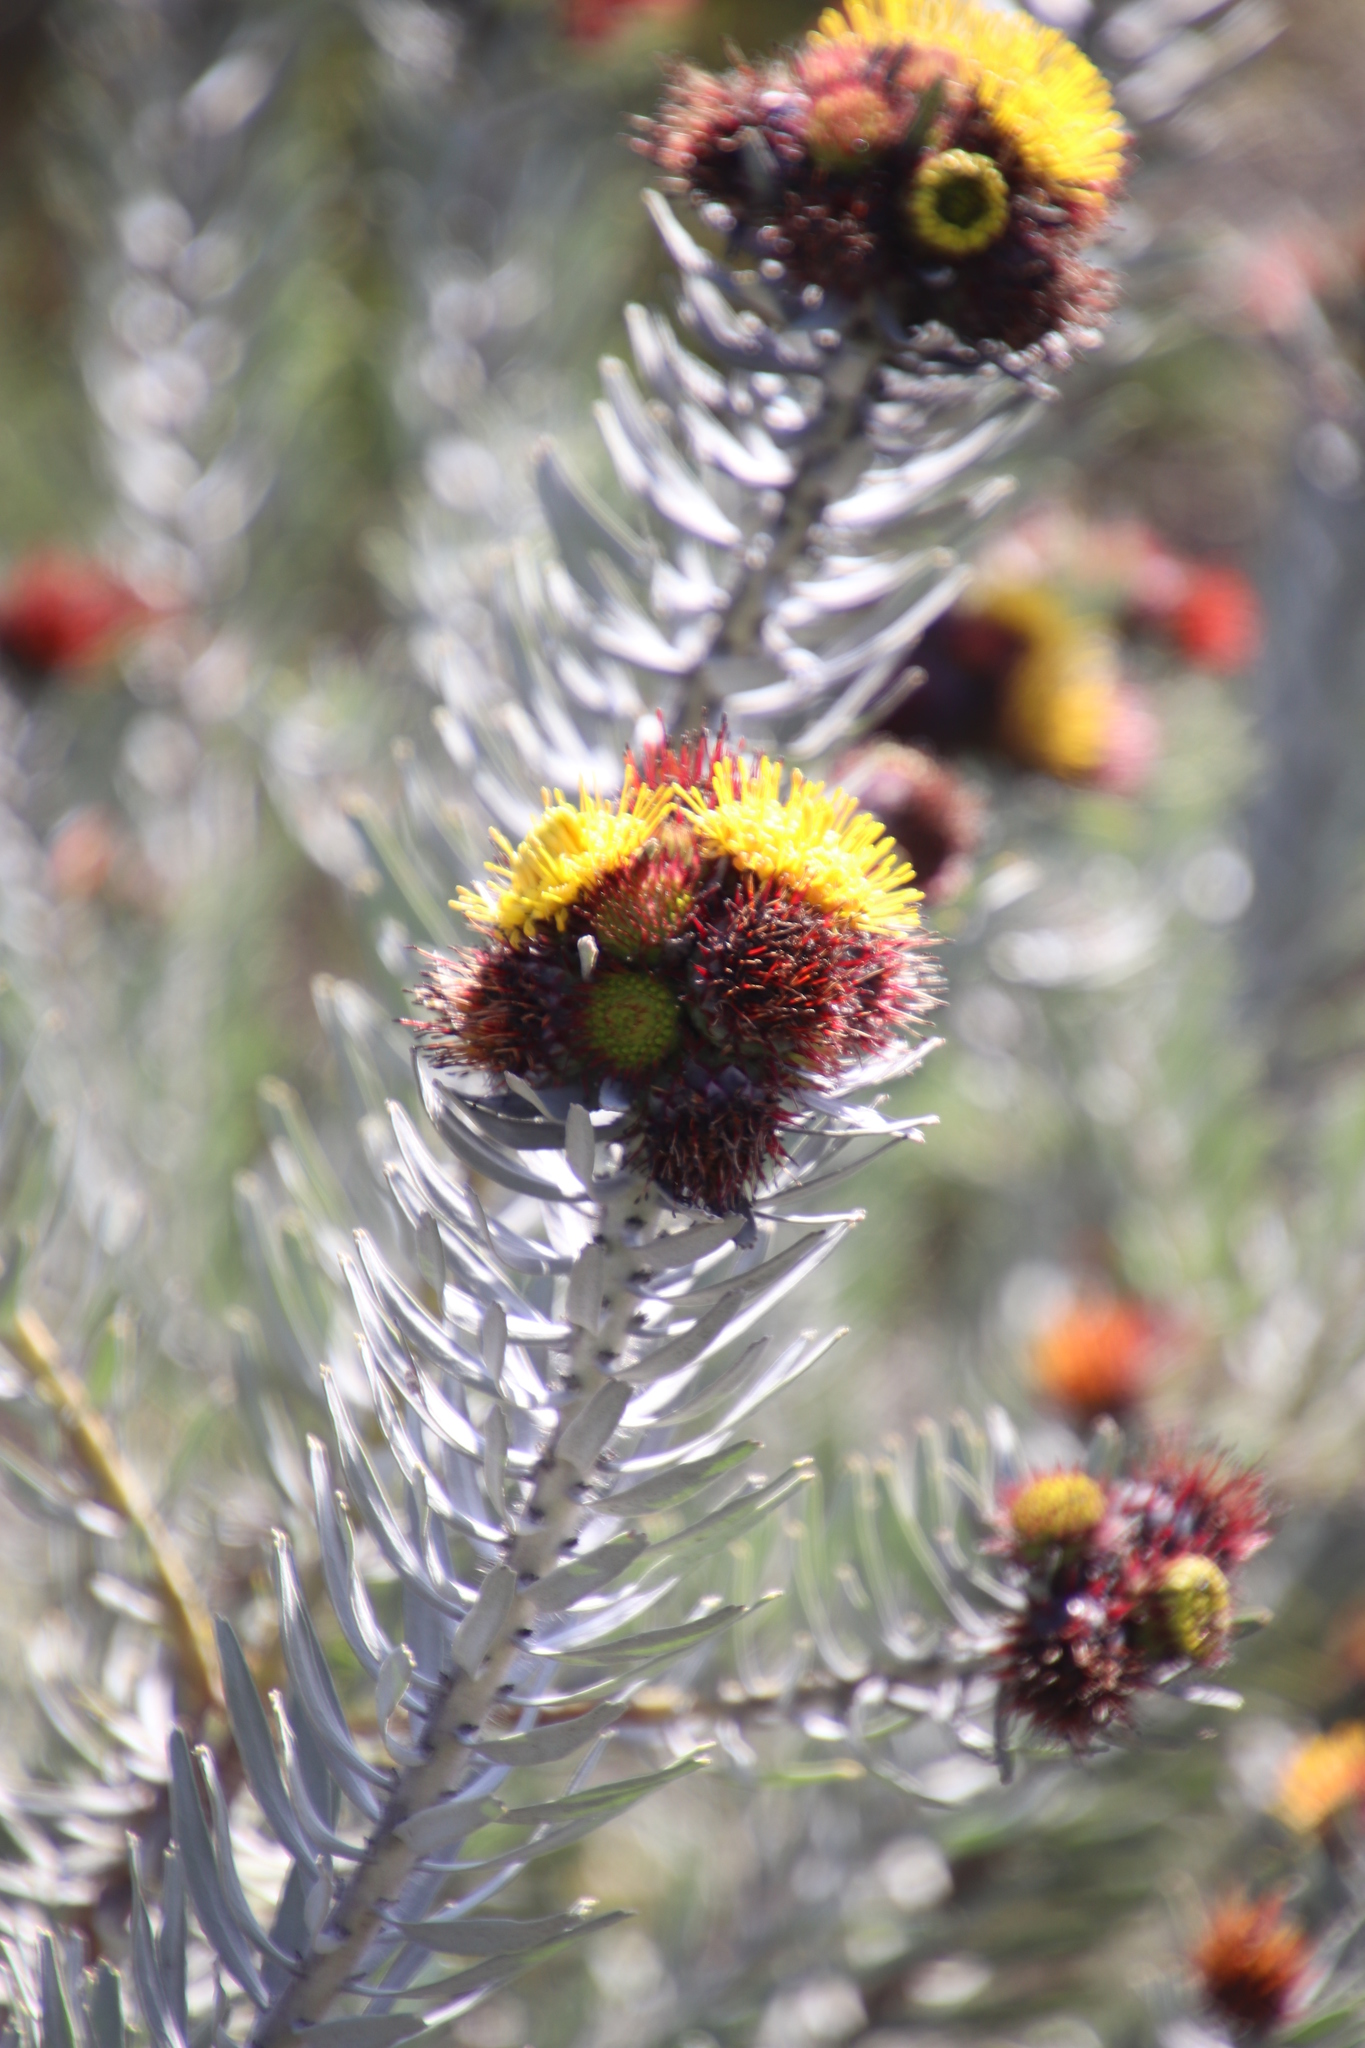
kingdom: Plantae
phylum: Tracheophyta
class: Magnoliopsida
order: Proteales
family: Proteaceae
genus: Leucospermum
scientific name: Leucospermum parile
